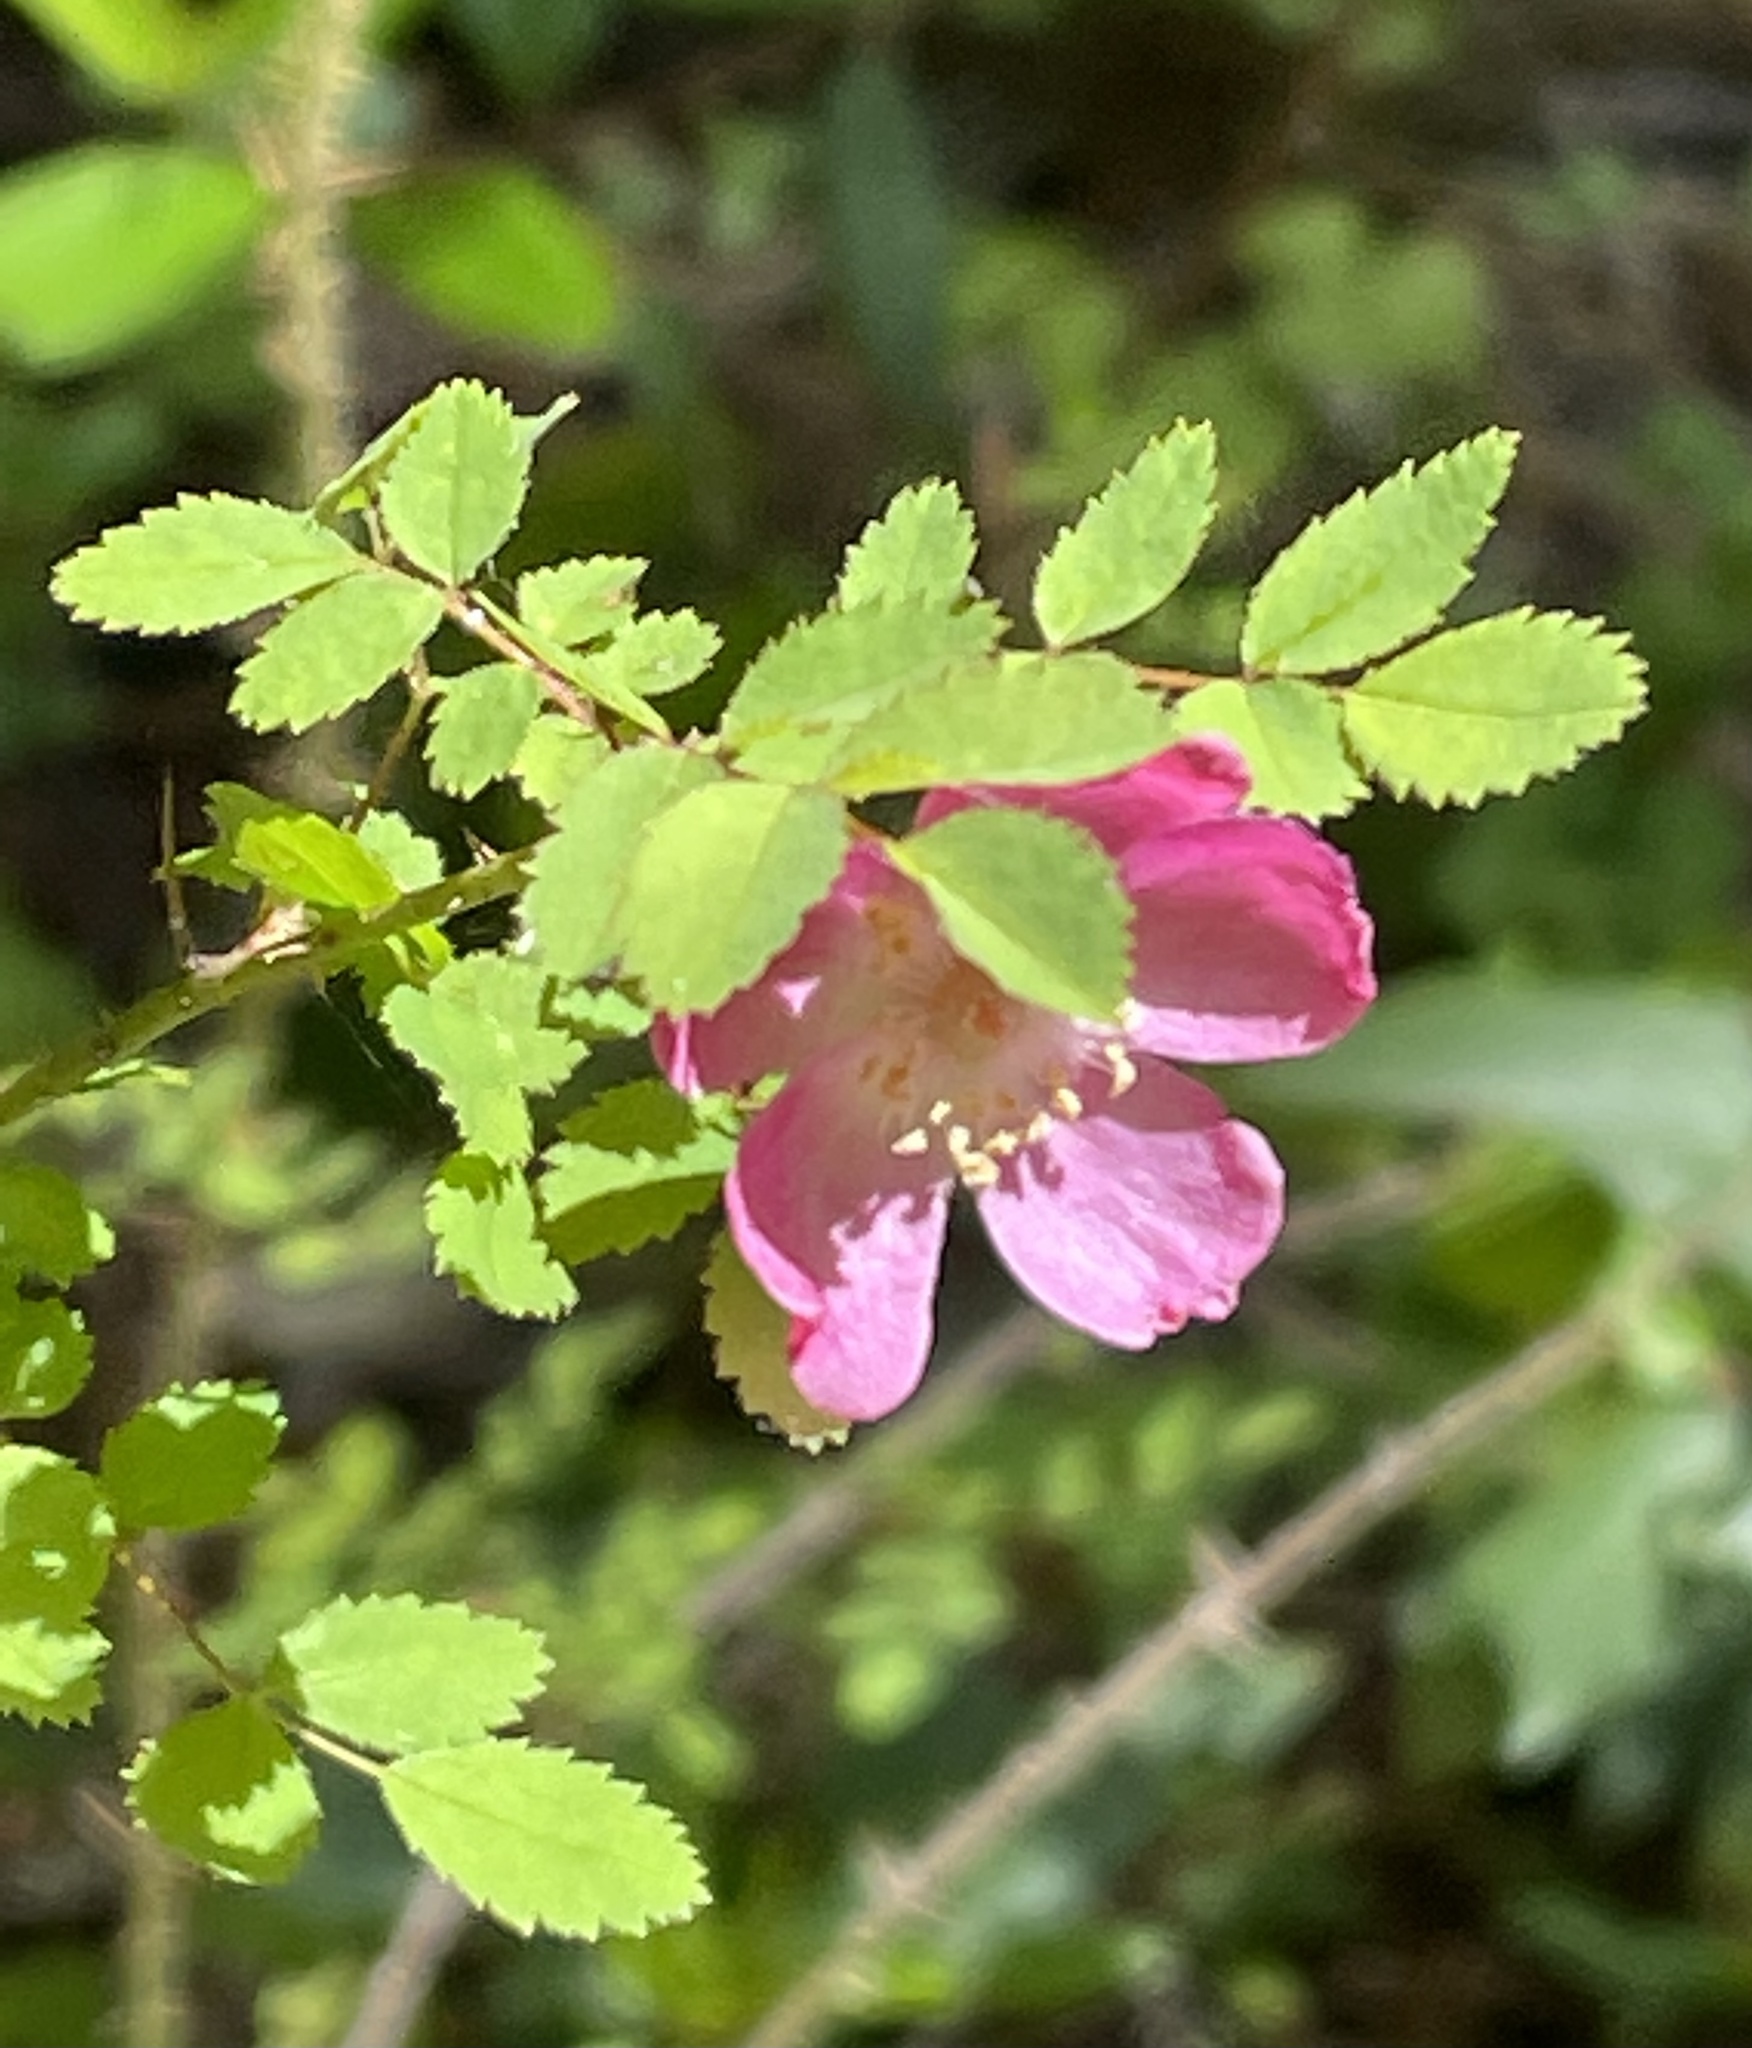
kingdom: Plantae
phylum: Tracheophyta
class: Magnoliopsida
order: Rosales
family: Rosaceae
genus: Rosa
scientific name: Rosa gymnocarpa
